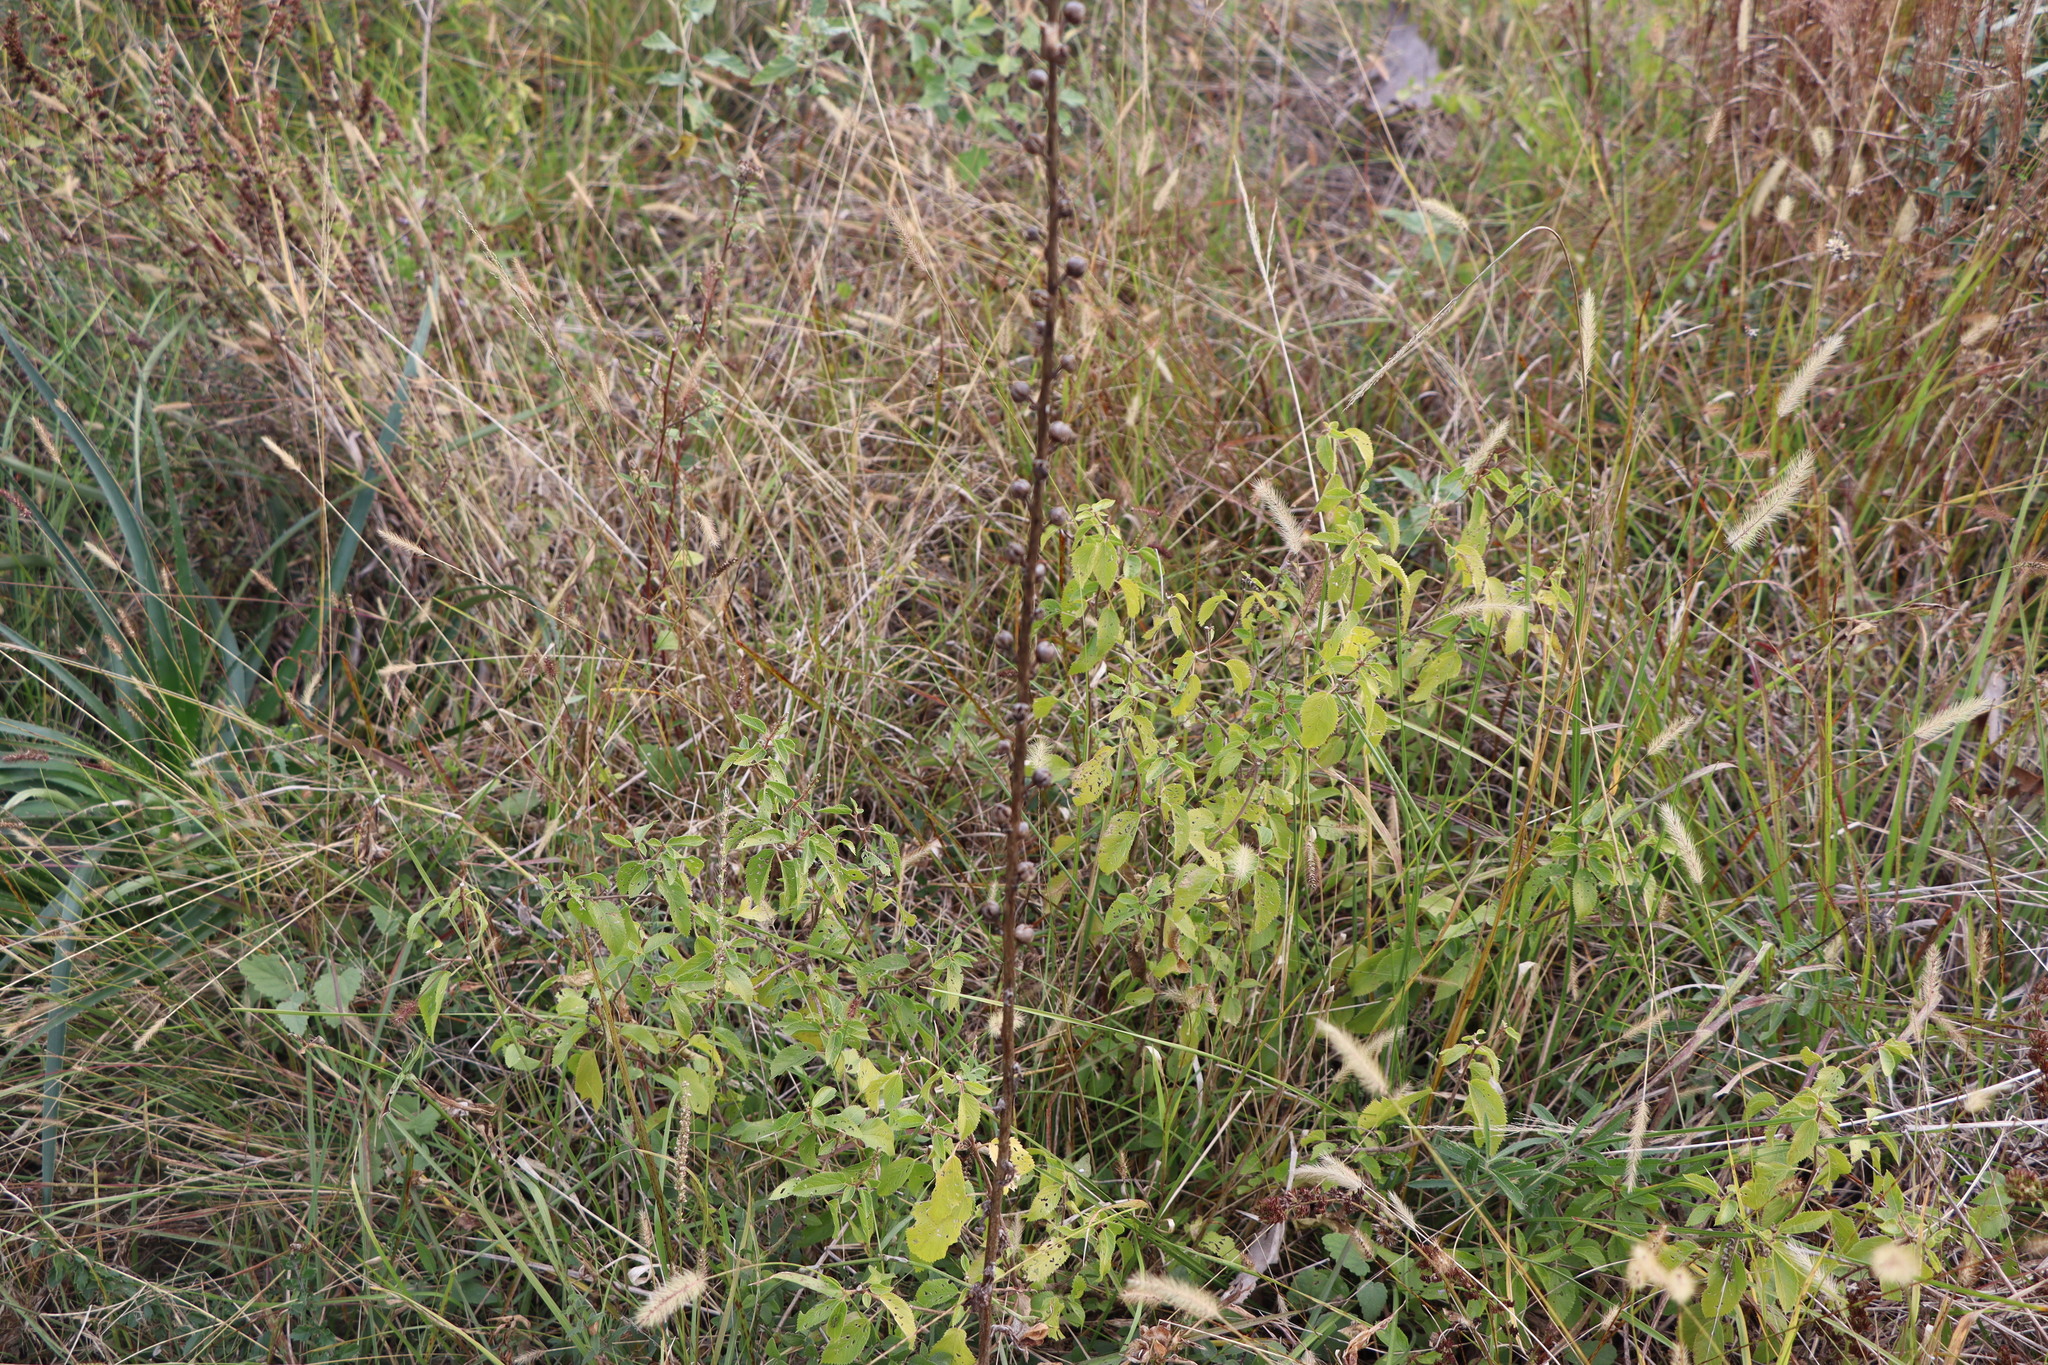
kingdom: Plantae
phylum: Tracheophyta
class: Magnoliopsida
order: Lamiales
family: Scrophulariaceae
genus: Verbascum
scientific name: Verbascum virgatum
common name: Twiggy mullein
